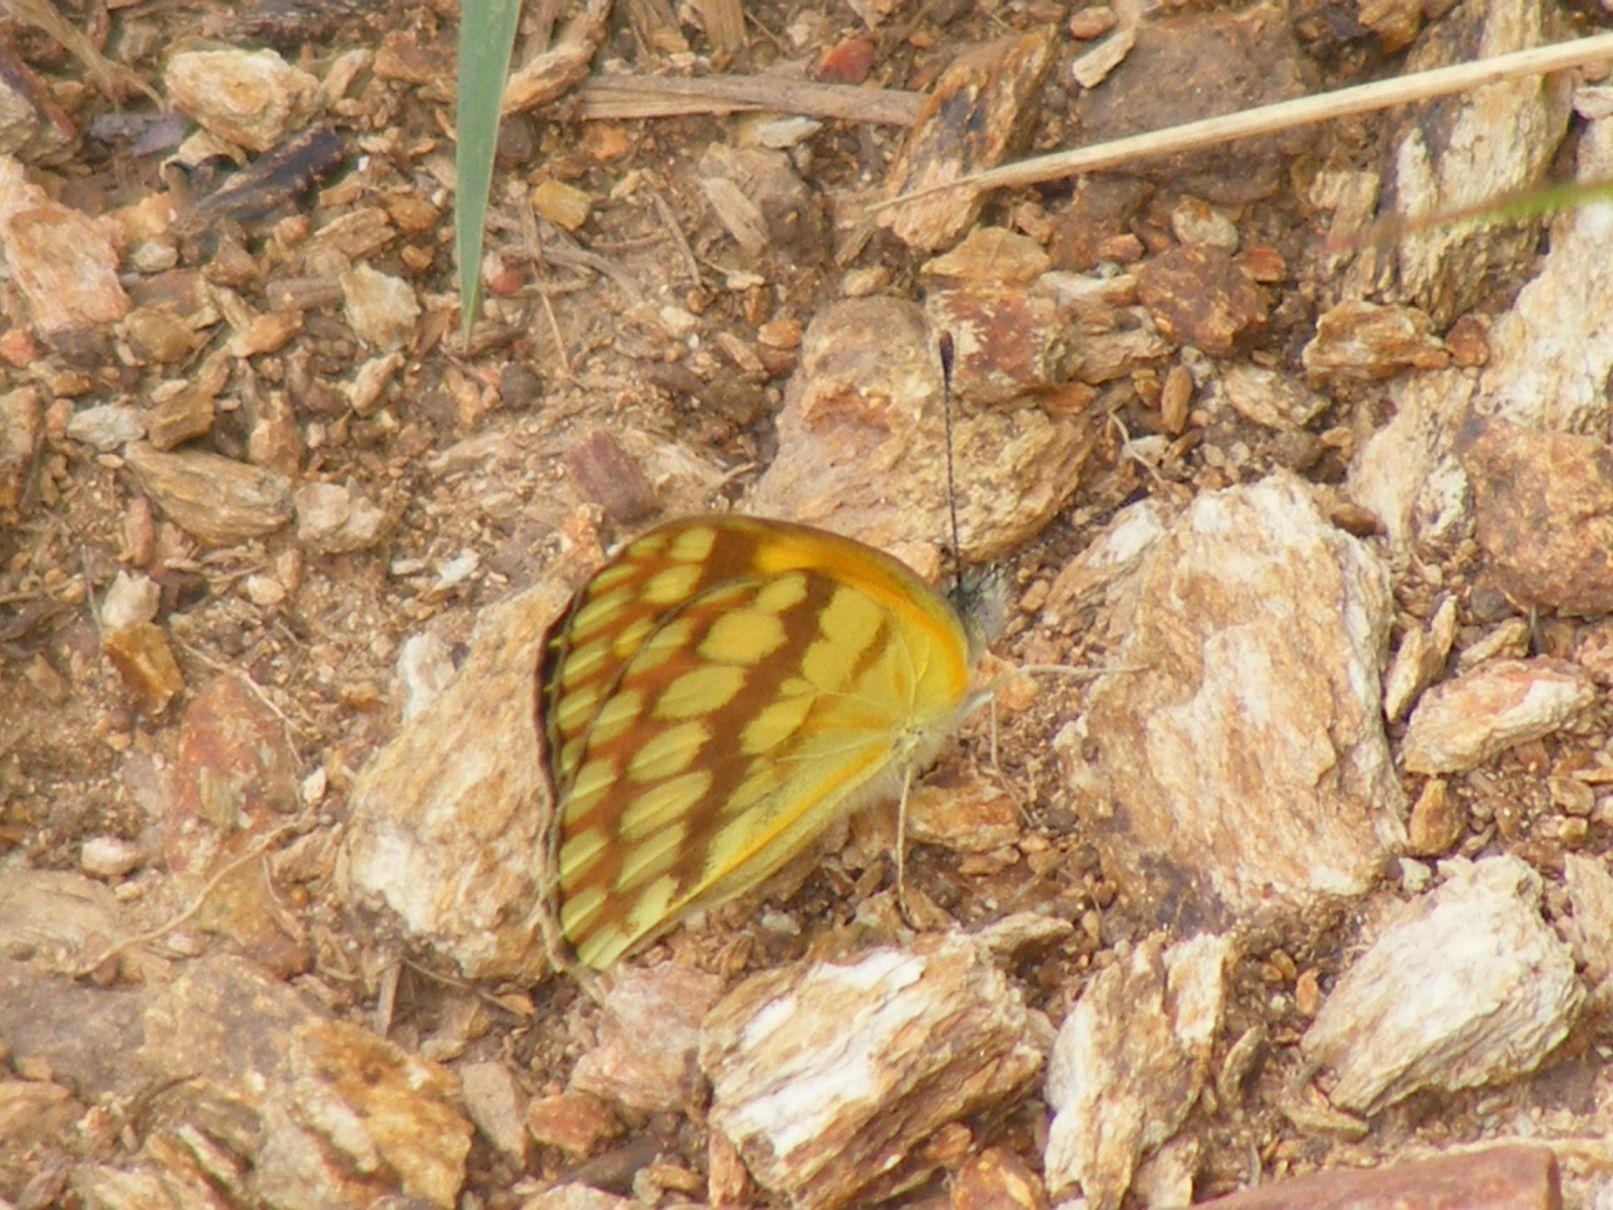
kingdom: Animalia
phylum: Arthropoda
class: Insecta
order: Lepidoptera
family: Pieridae
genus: Colotis
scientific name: Colotis vesta
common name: Veined golden arab
